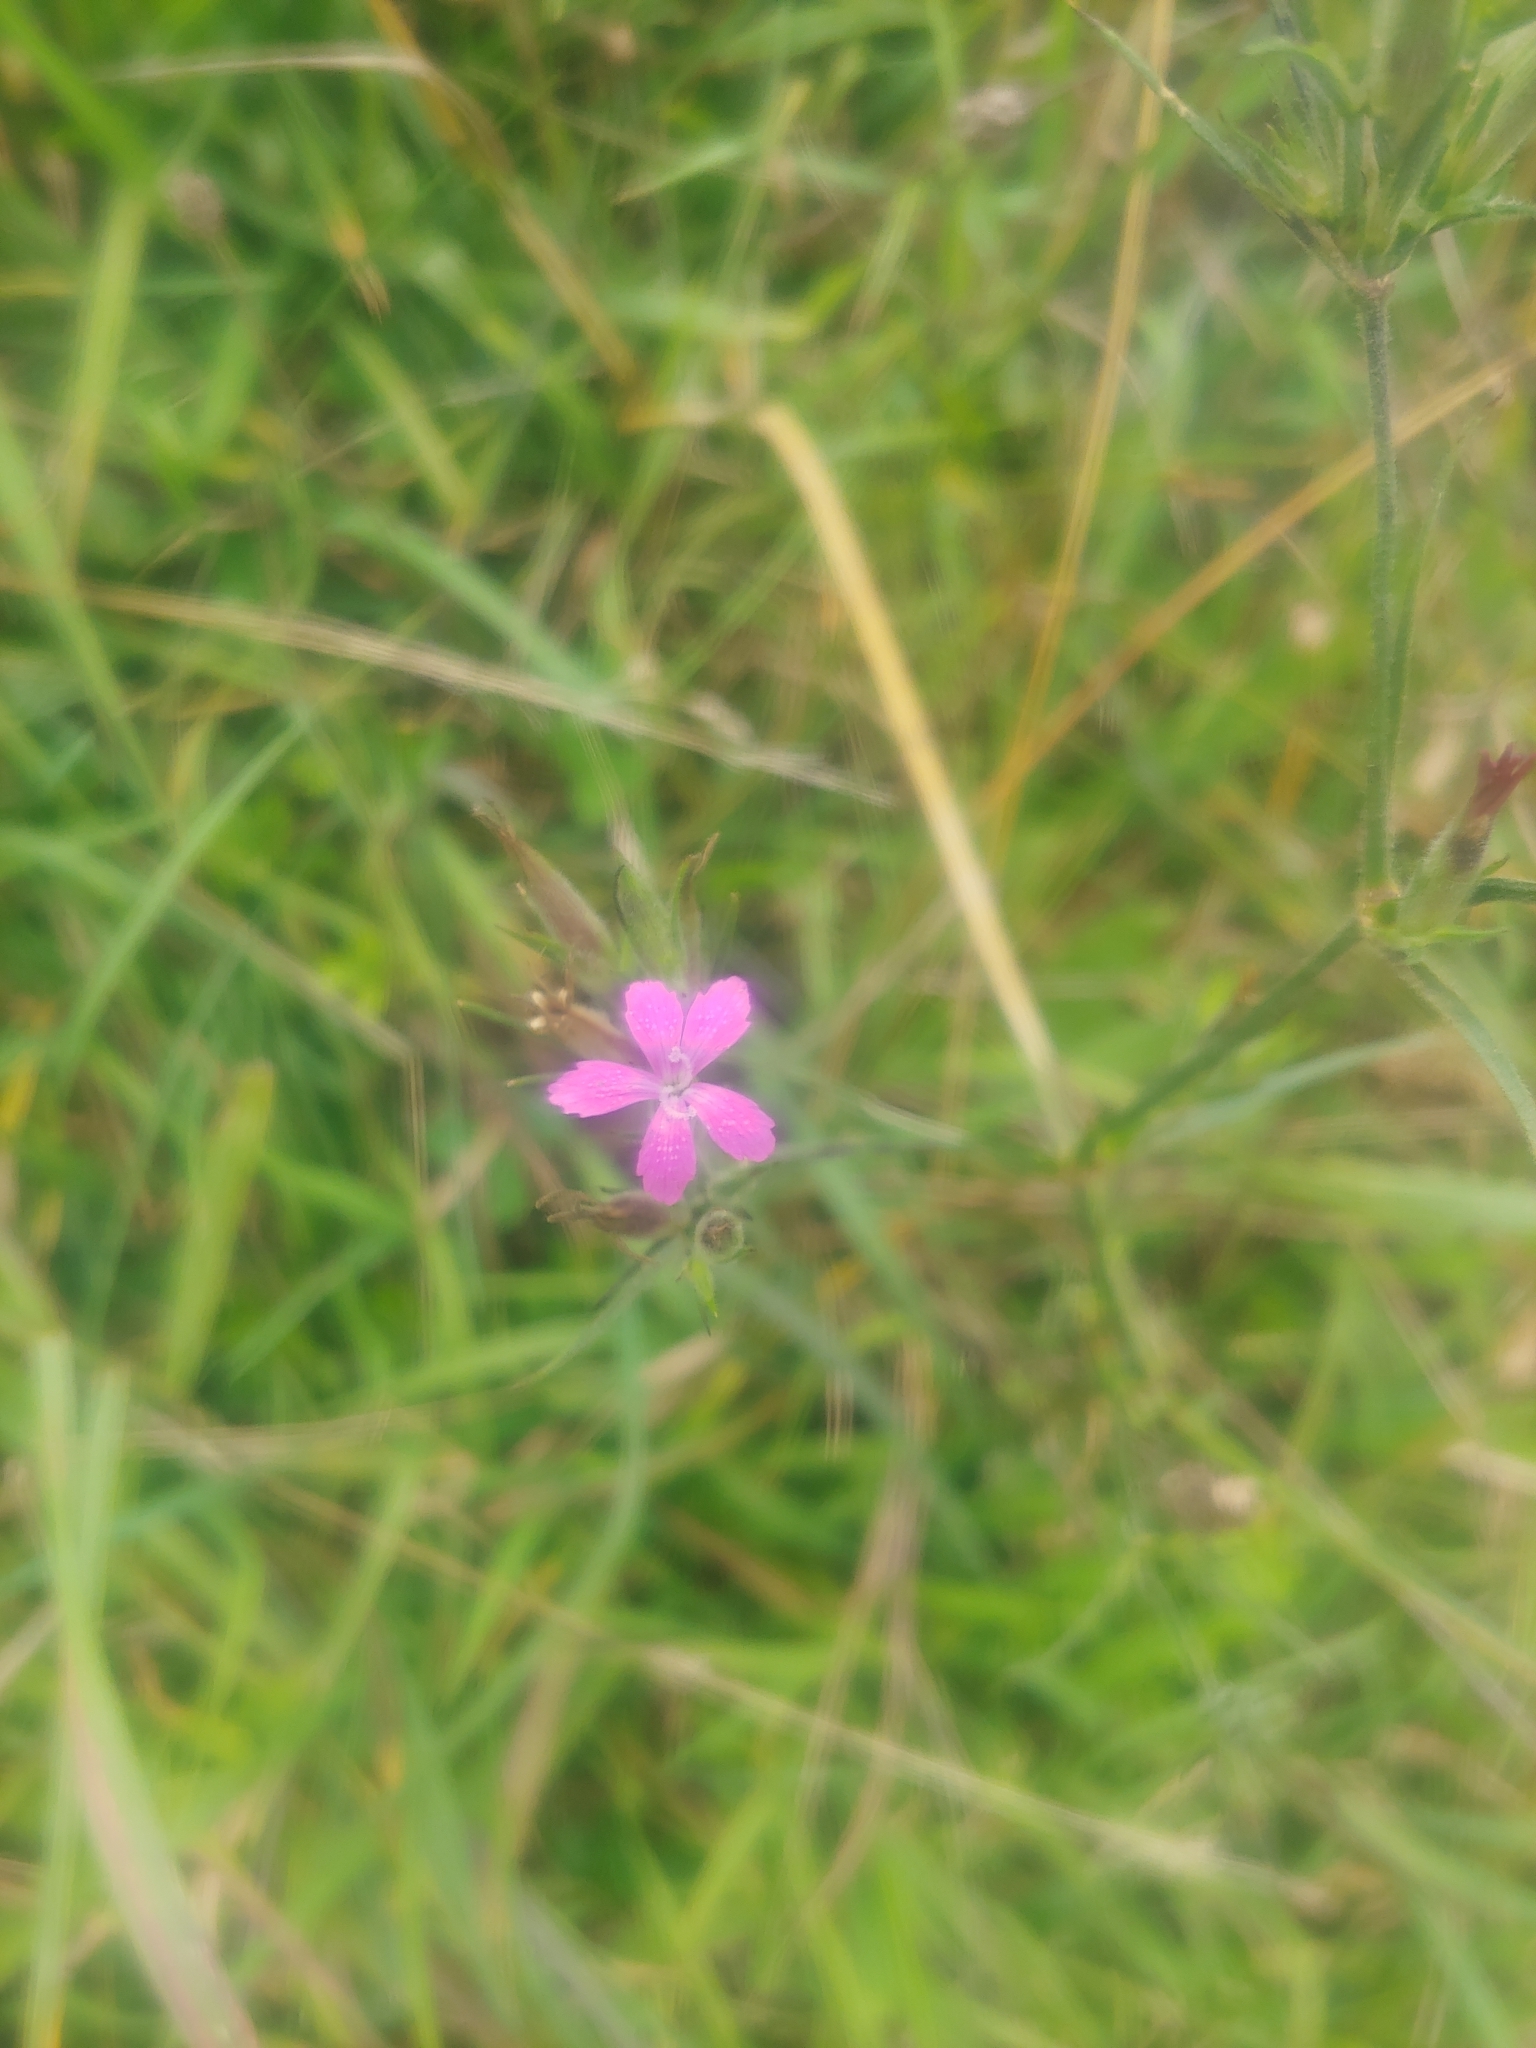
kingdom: Plantae
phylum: Tracheophyta
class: Magnoliopsida
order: Caryophyllales
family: Caryophyllaceae
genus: Dianthus
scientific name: Dianthus armeria
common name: Deptford pink
